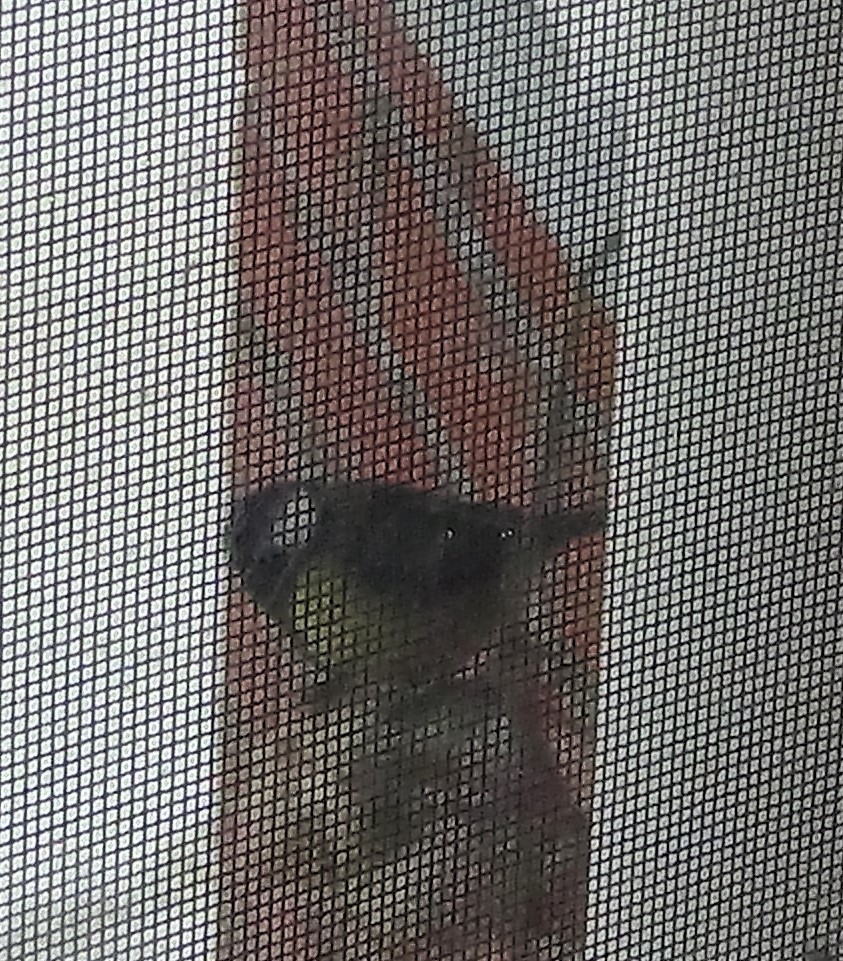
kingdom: Animalia
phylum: Chordata
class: Aves
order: Passeriformes
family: Paridae
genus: Parus
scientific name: Parus major
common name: Great tit
